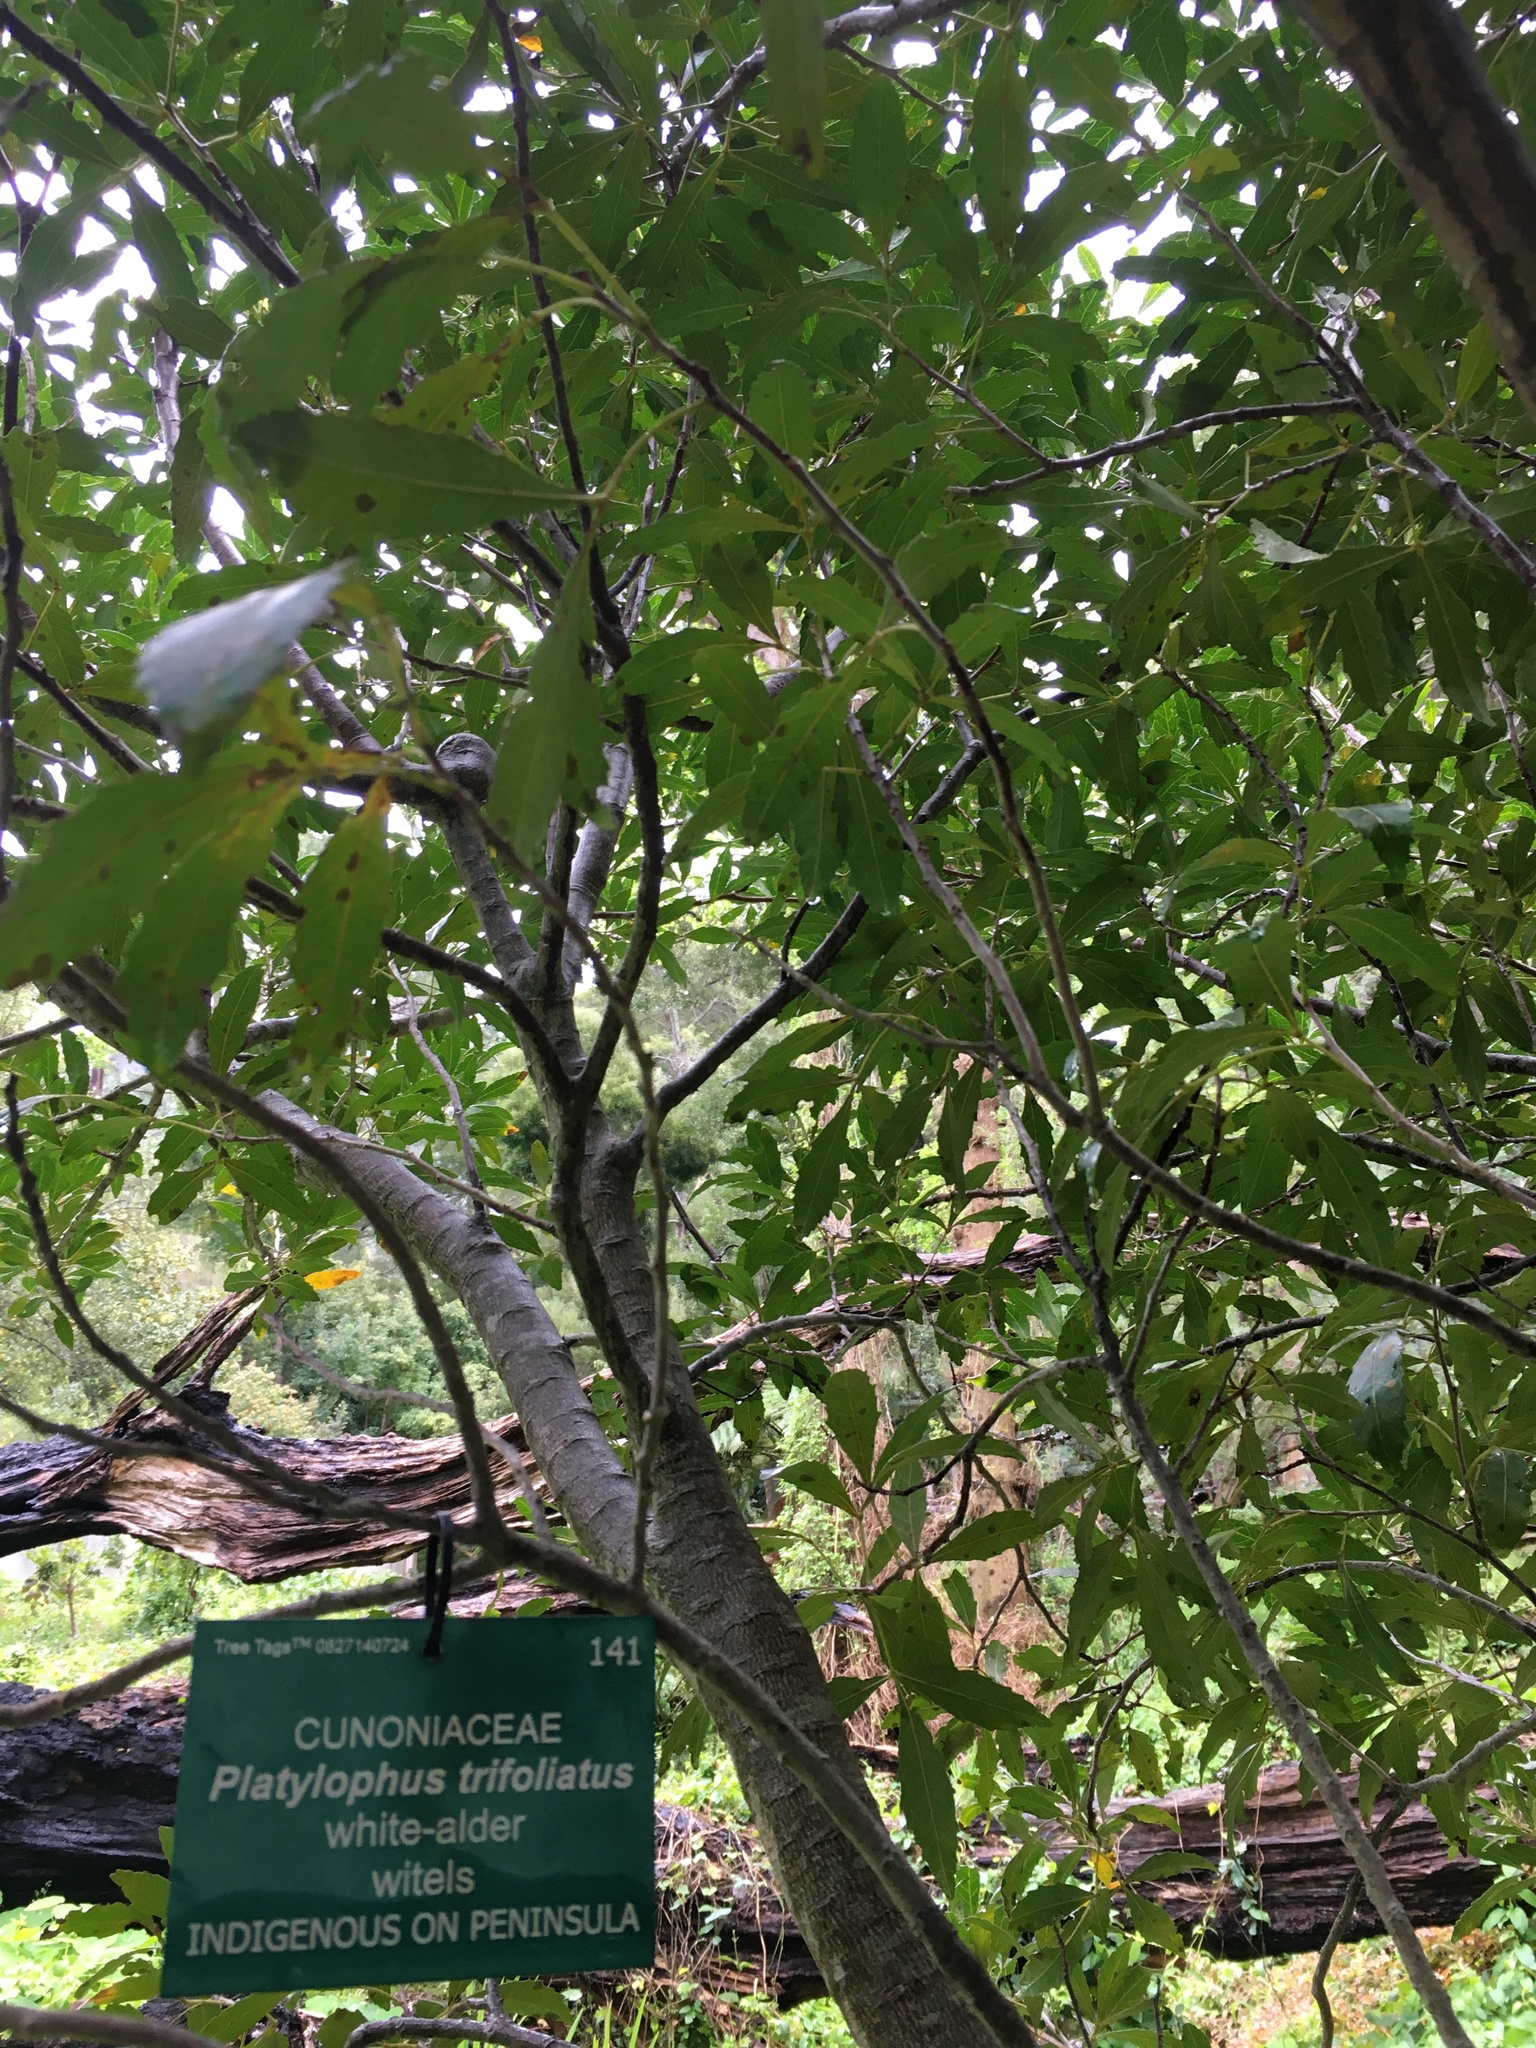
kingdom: Plantae
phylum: Tracheophyta
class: Magnoliopsida
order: Oxalidales
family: Cunoniaceae
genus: Platylophus
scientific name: Platylophus trifoliatus
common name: White alder
